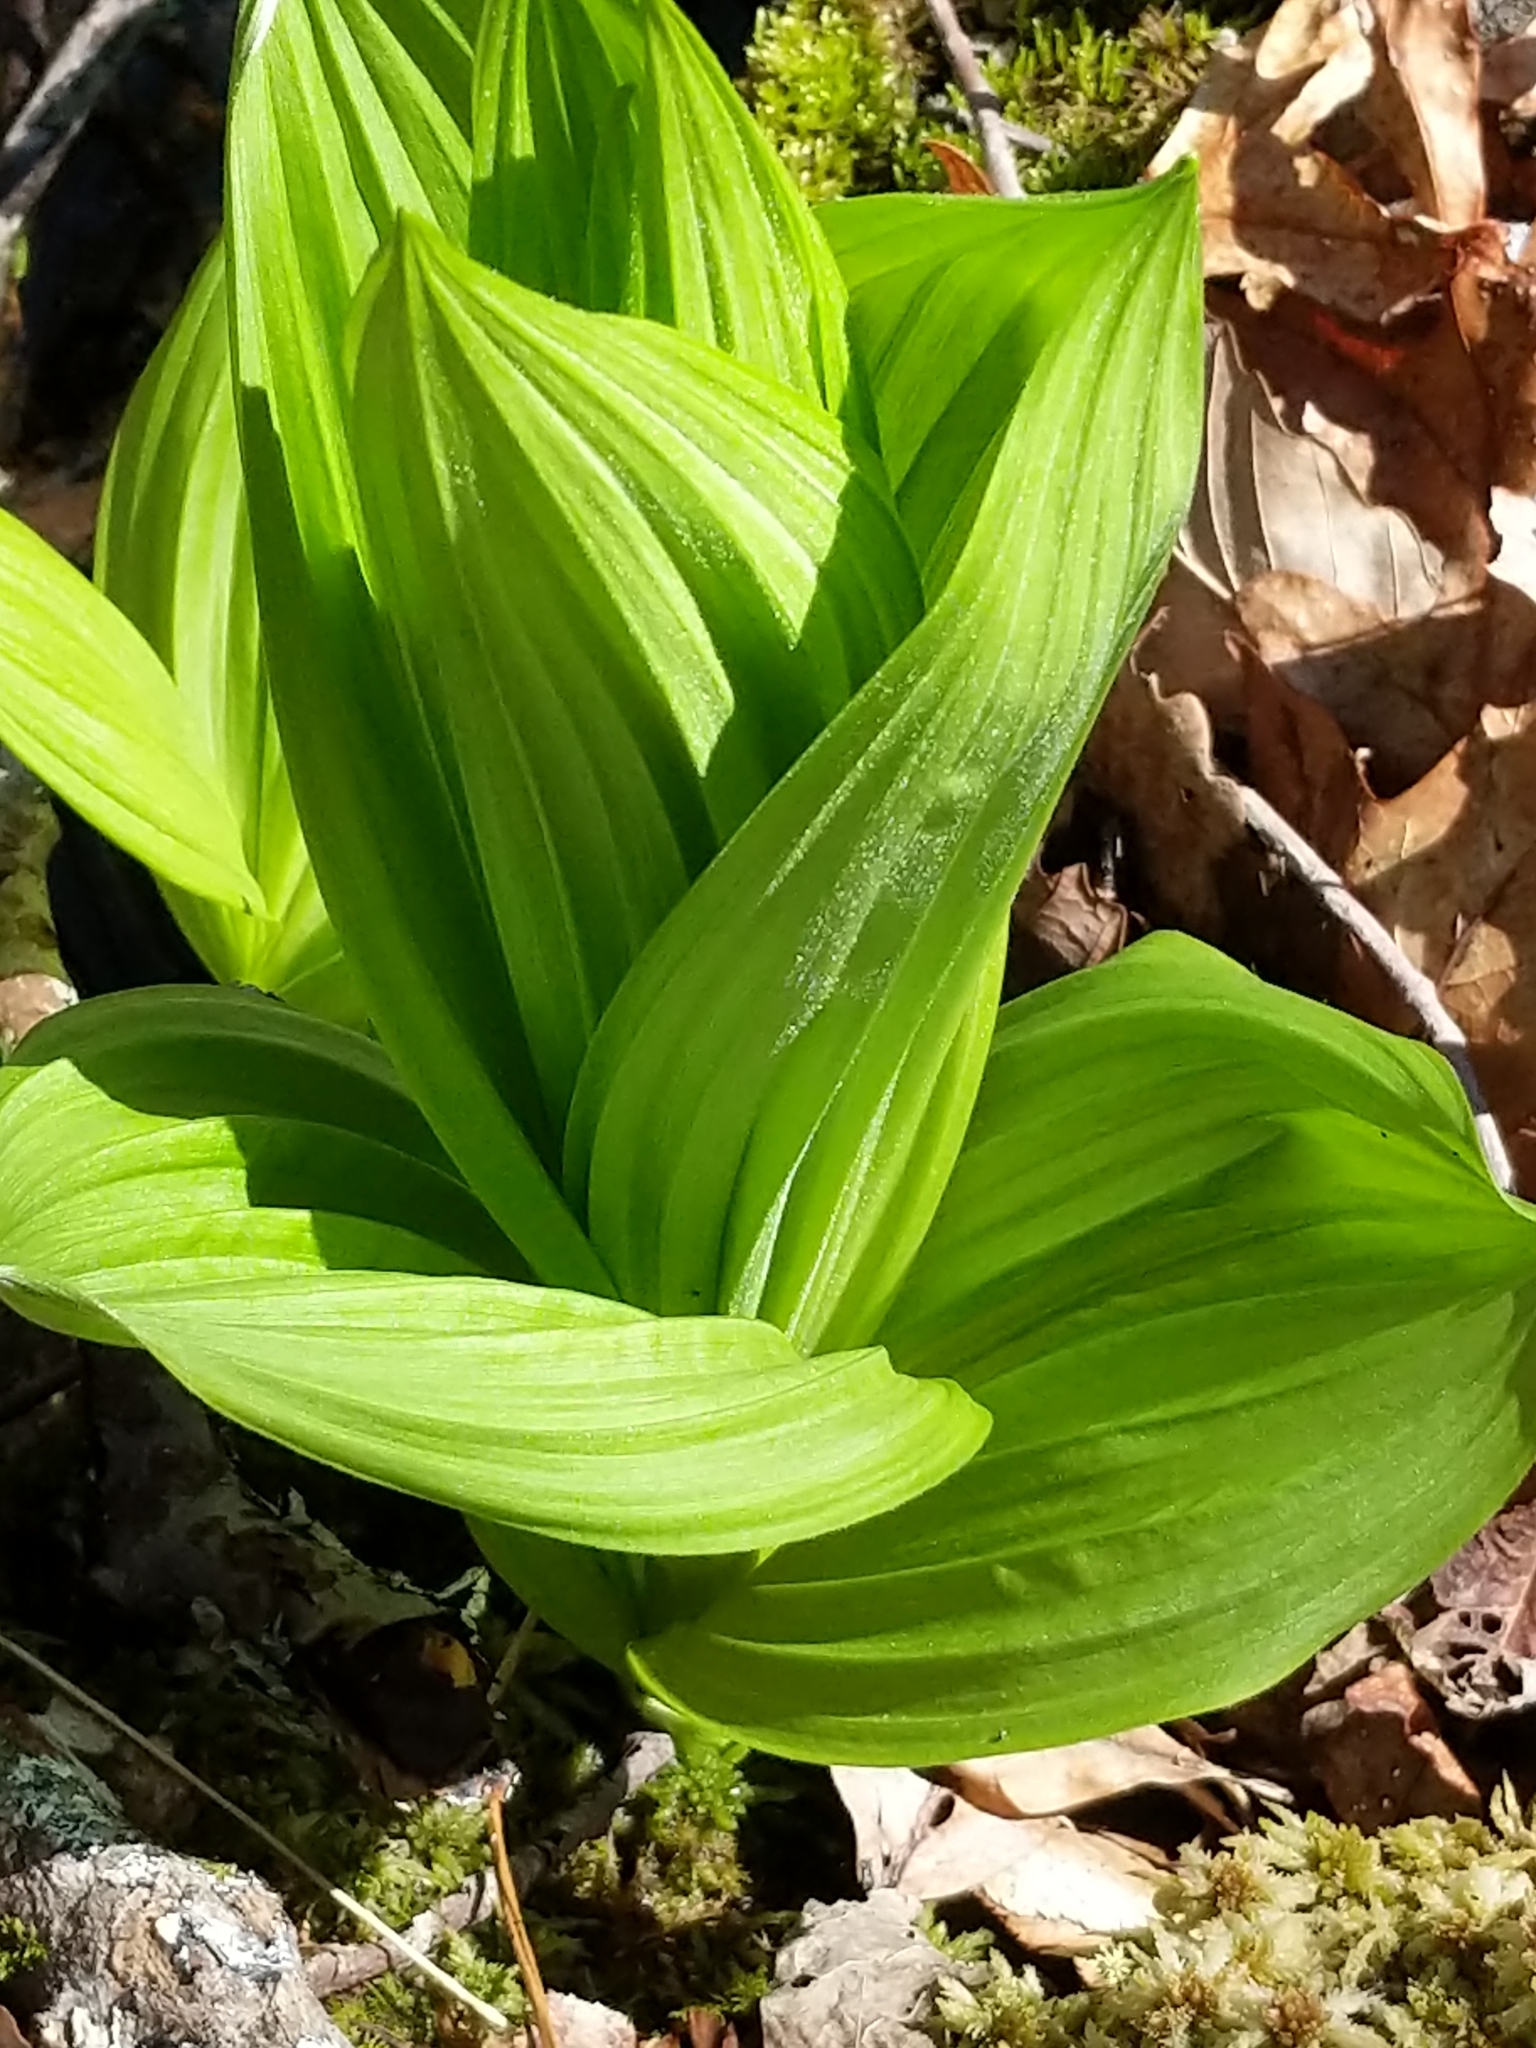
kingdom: Plantae
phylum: Tracheophyta
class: Liliopsida
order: Liliales
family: Melanthiaceae
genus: Veratrum
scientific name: Veratrum viride
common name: American false hellebore
